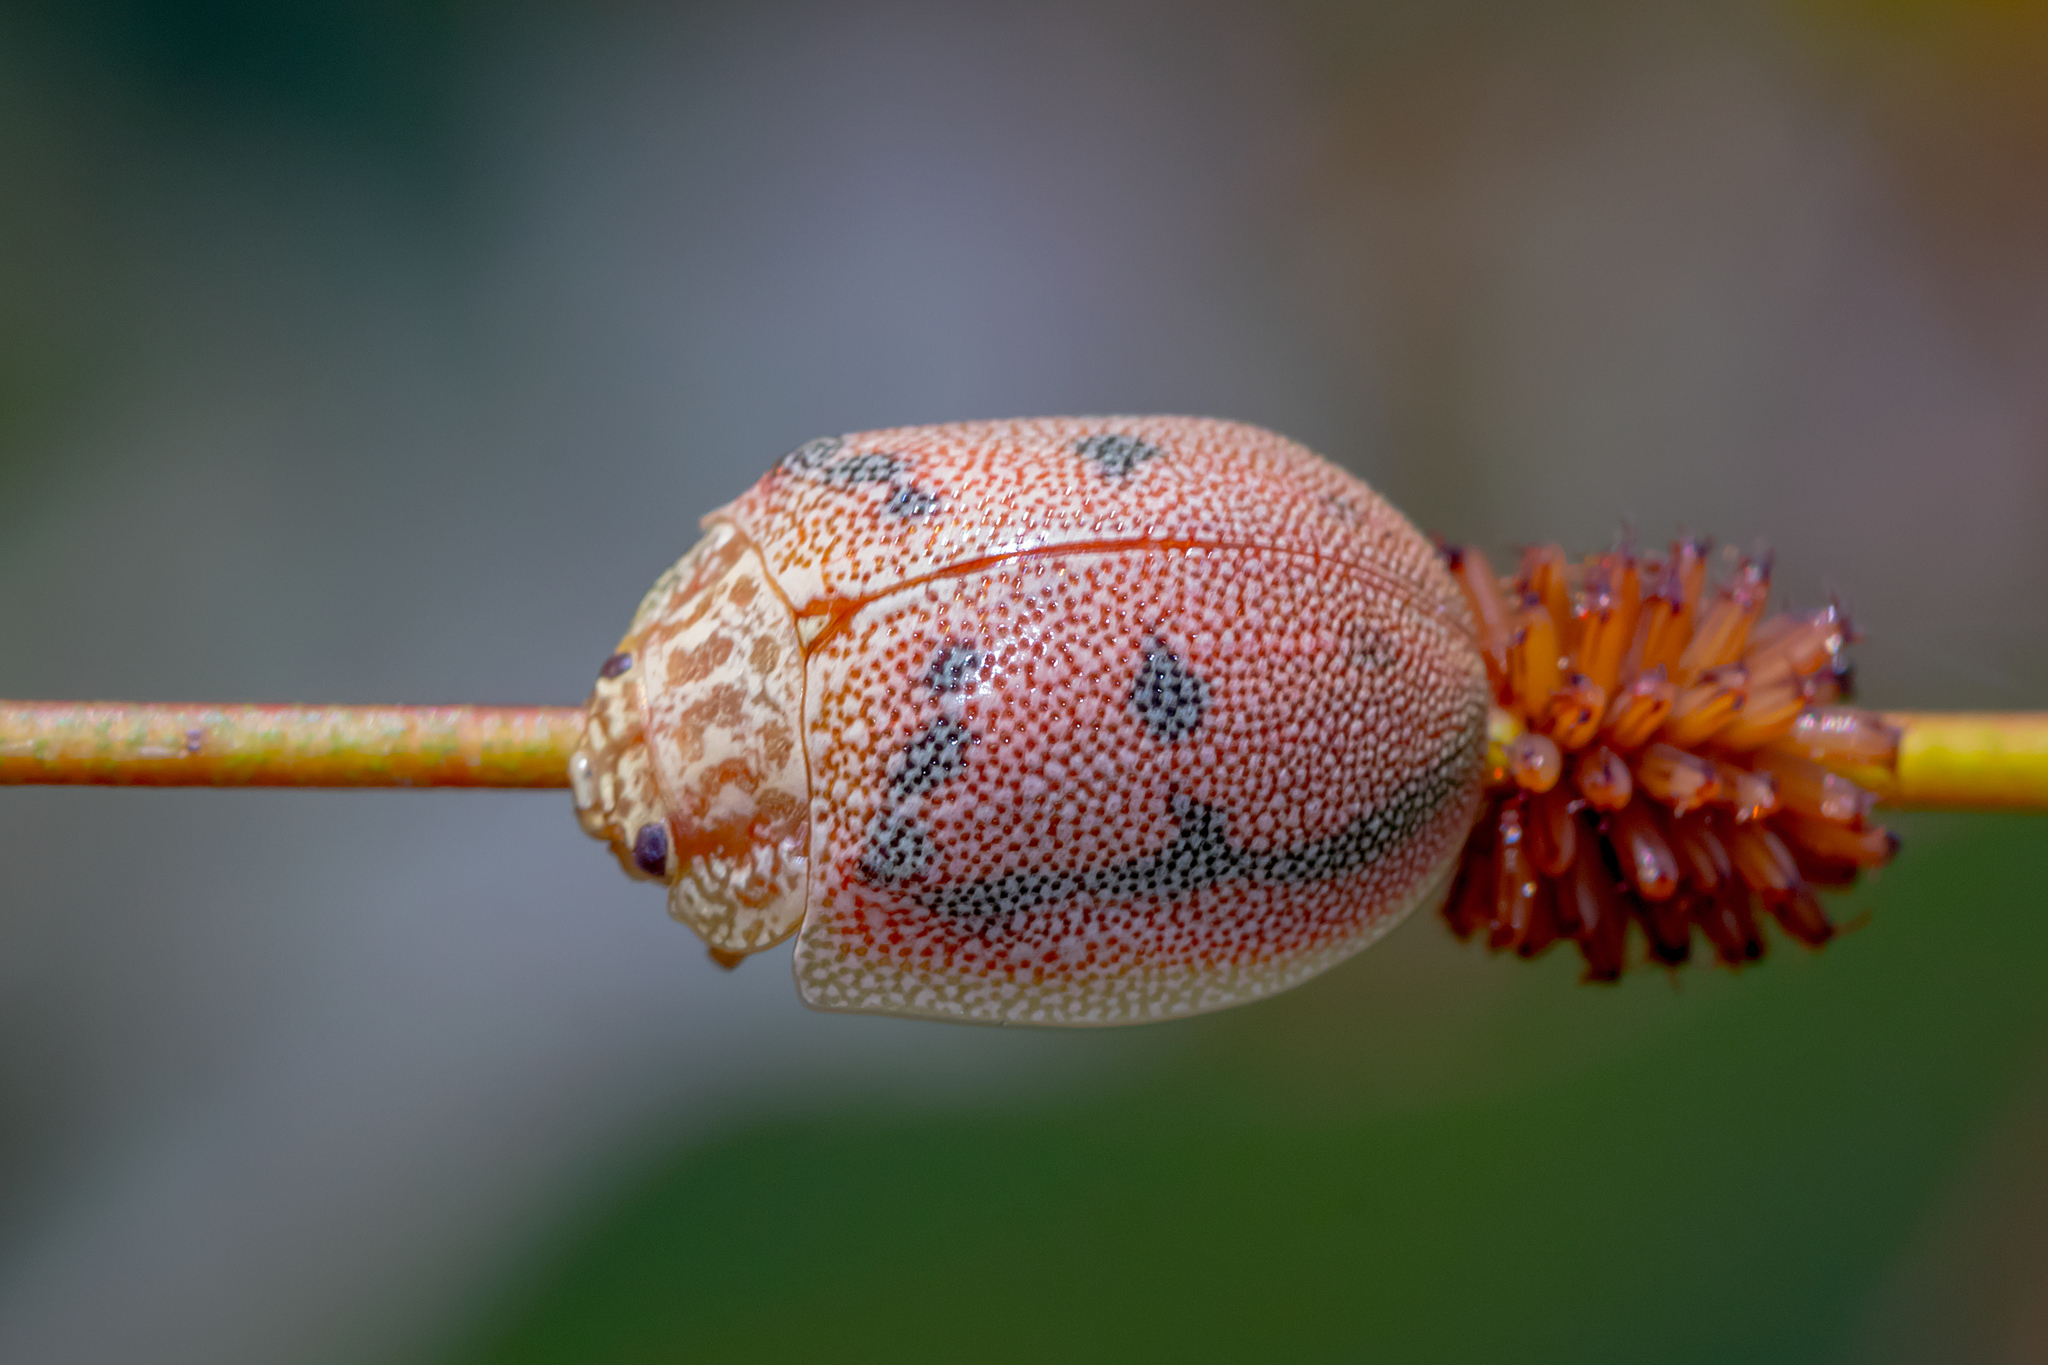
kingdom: Animalia
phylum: Arthropoda
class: Insecta
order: Coleoptera
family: Chrysomelidae
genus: Paropsis
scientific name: Paropsis
